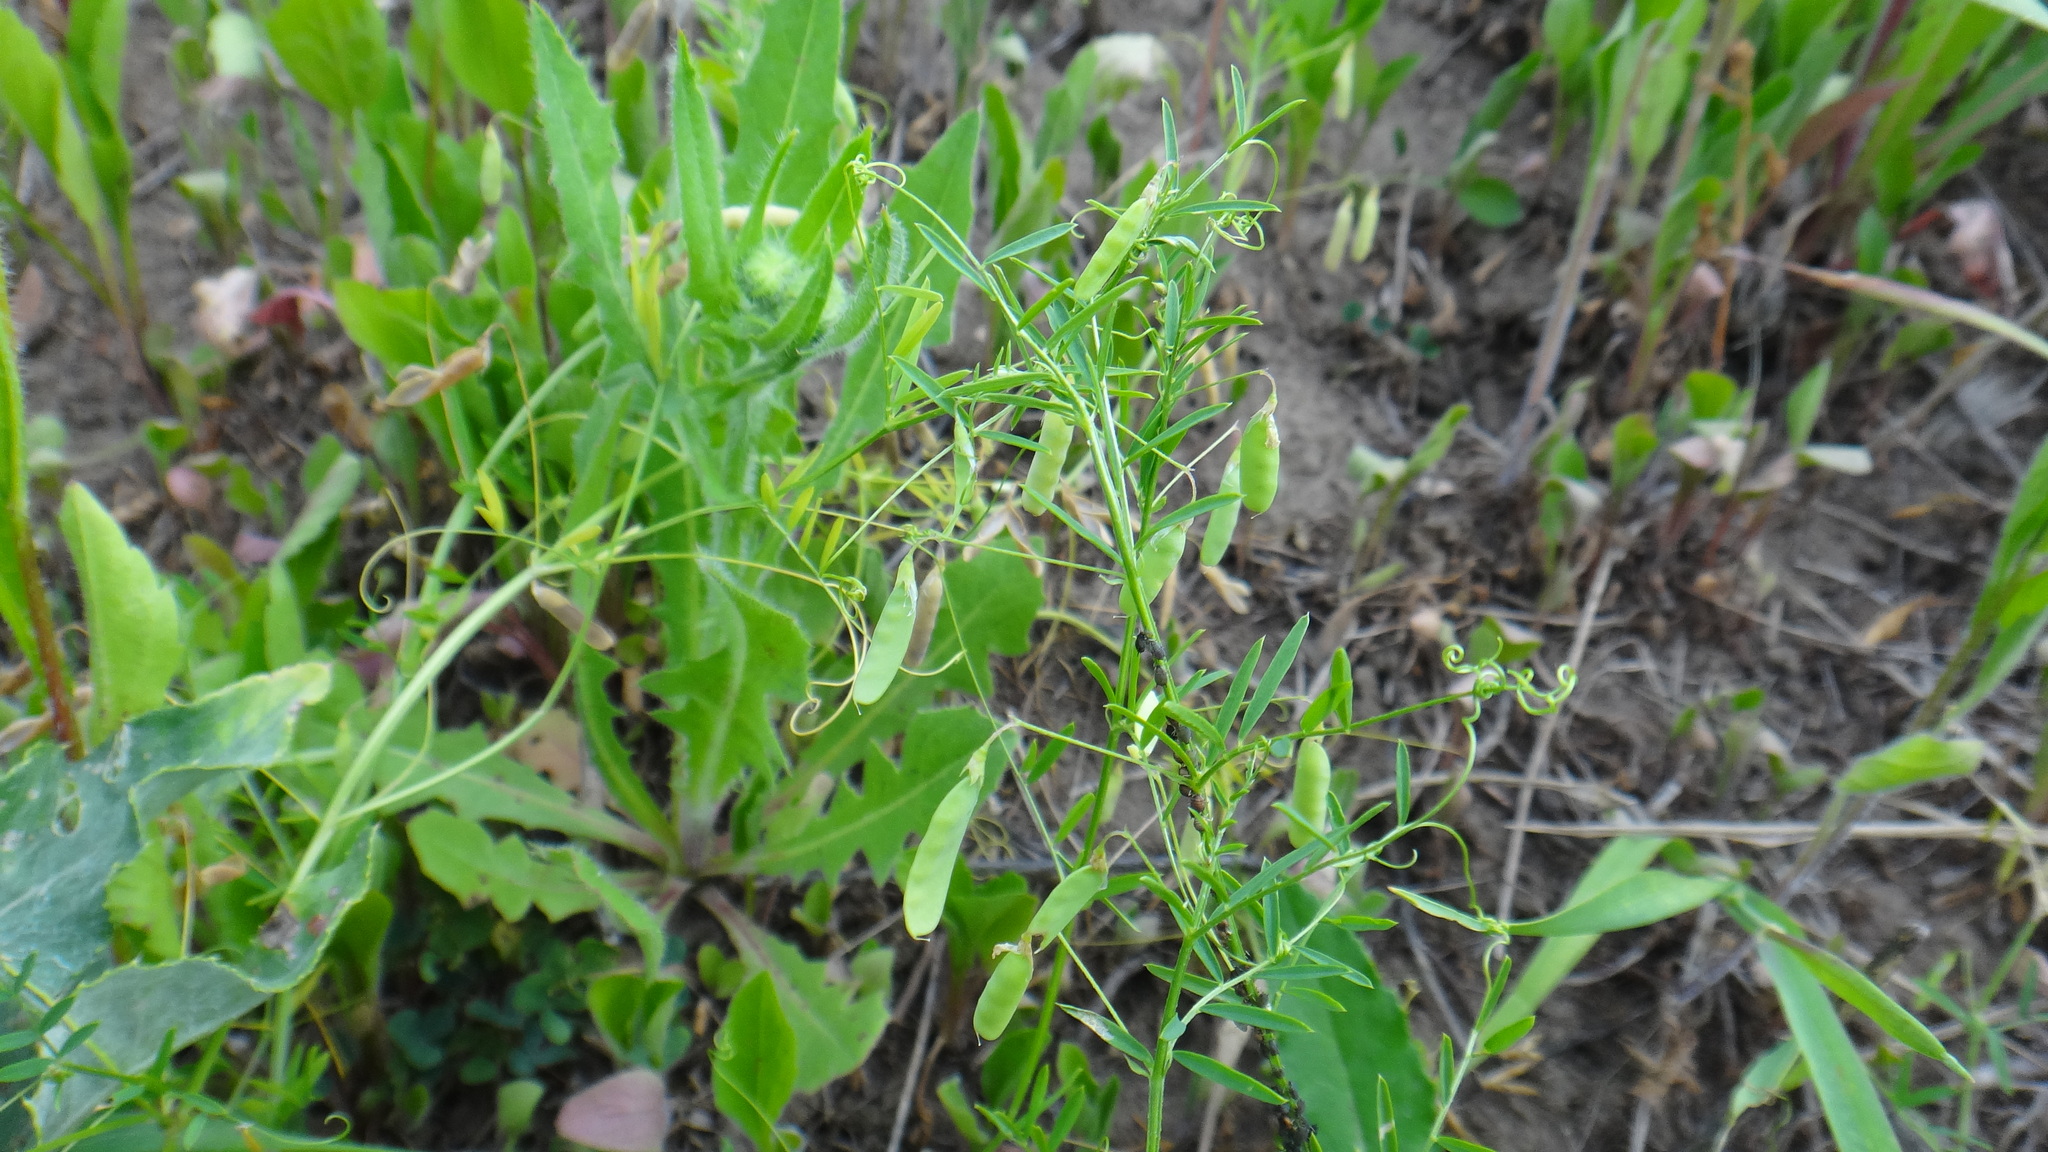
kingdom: Plantae
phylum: Tracheophyta
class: Magnoliopsida
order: Fabales
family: Fabaceae
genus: Vicia
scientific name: Vicia tetrasperma
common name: Smooth tare
